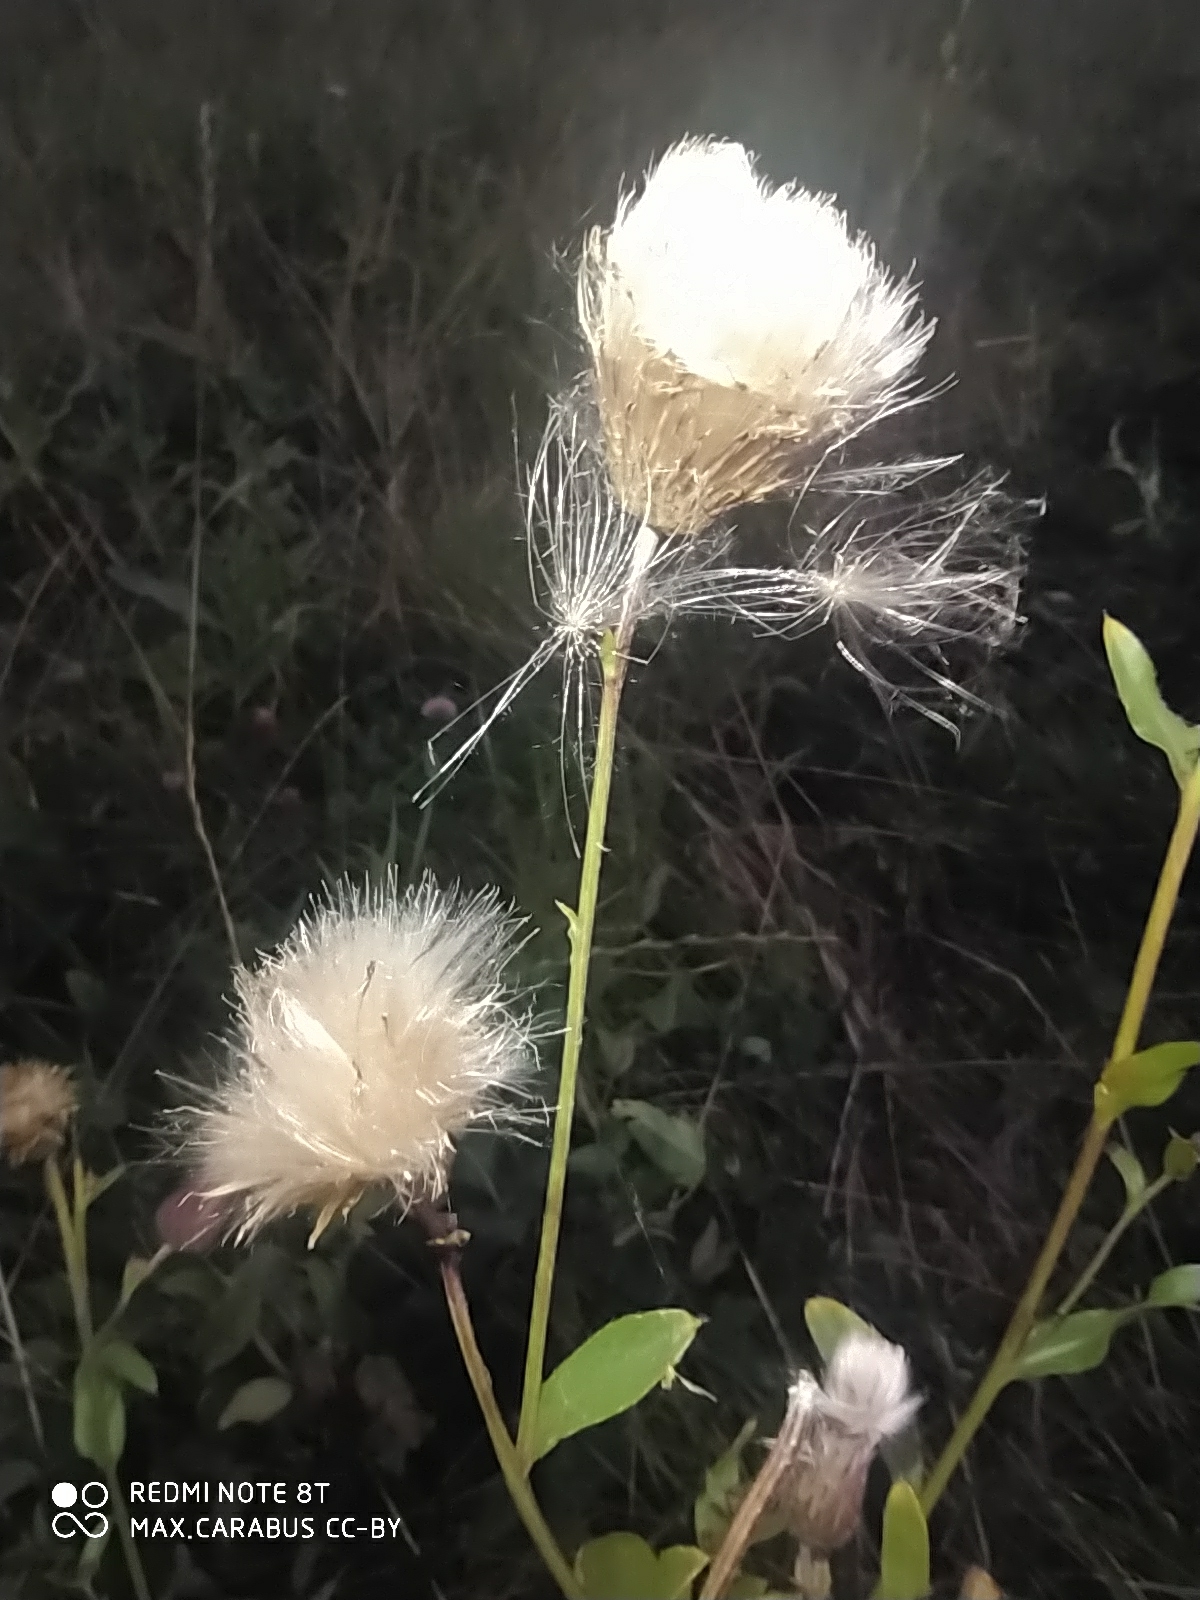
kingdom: Plantae
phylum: Tracheophyta
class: Magnoliopsida
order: Asterales
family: Asteraceae
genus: Cirsium
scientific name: Cirsium arvense
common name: Creeping thistle
